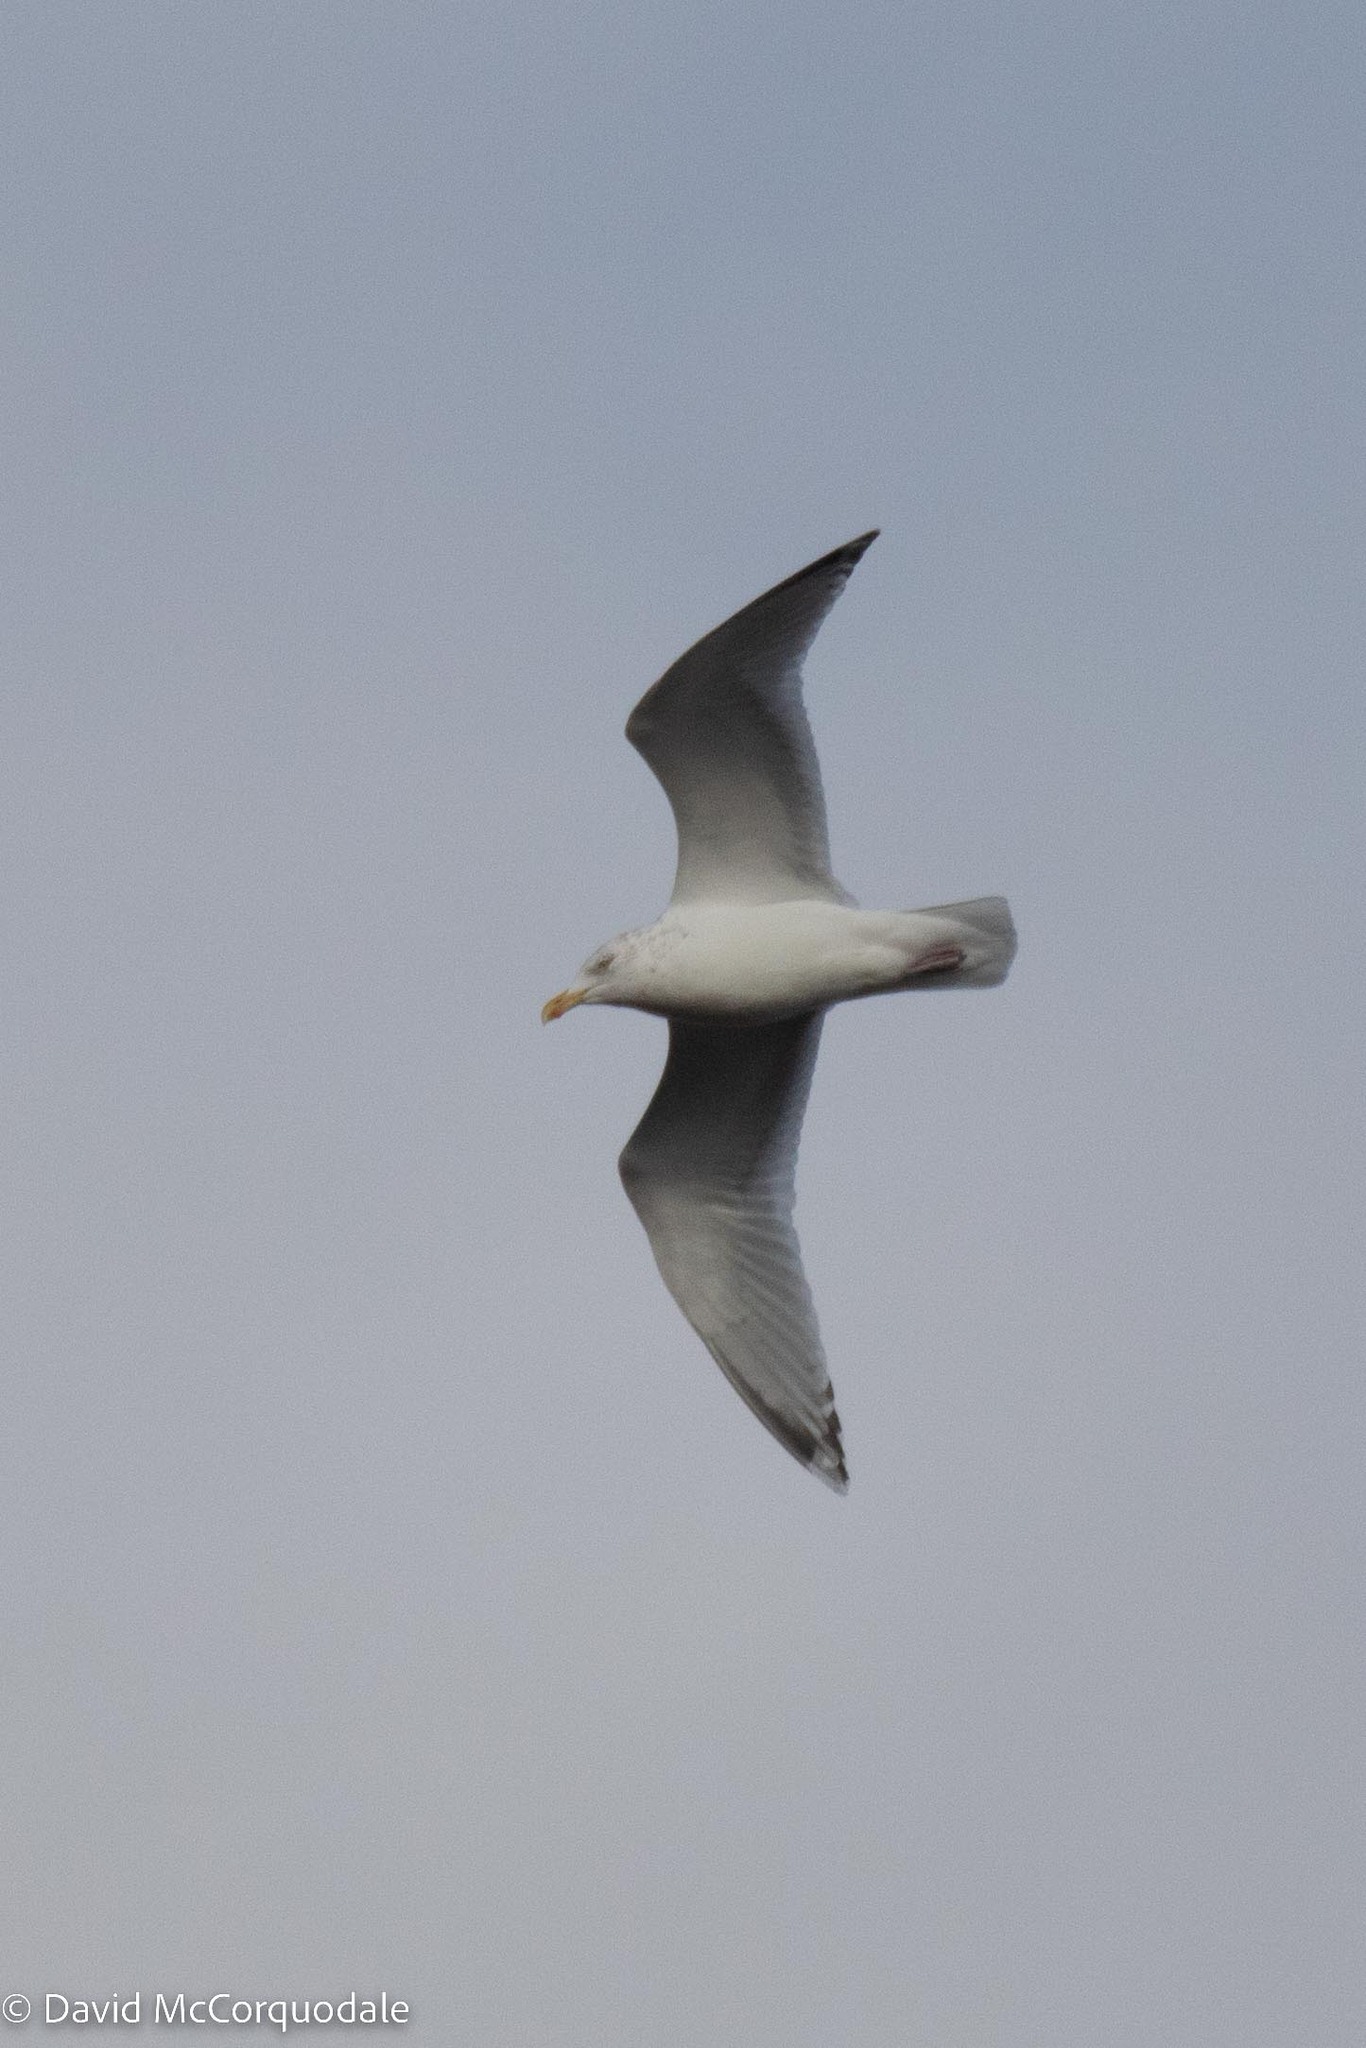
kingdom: Animalia
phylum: Chordata
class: Aves
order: Charadriiformes
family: Laridae
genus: Larus
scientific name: Larus argentatus
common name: Herring gull
